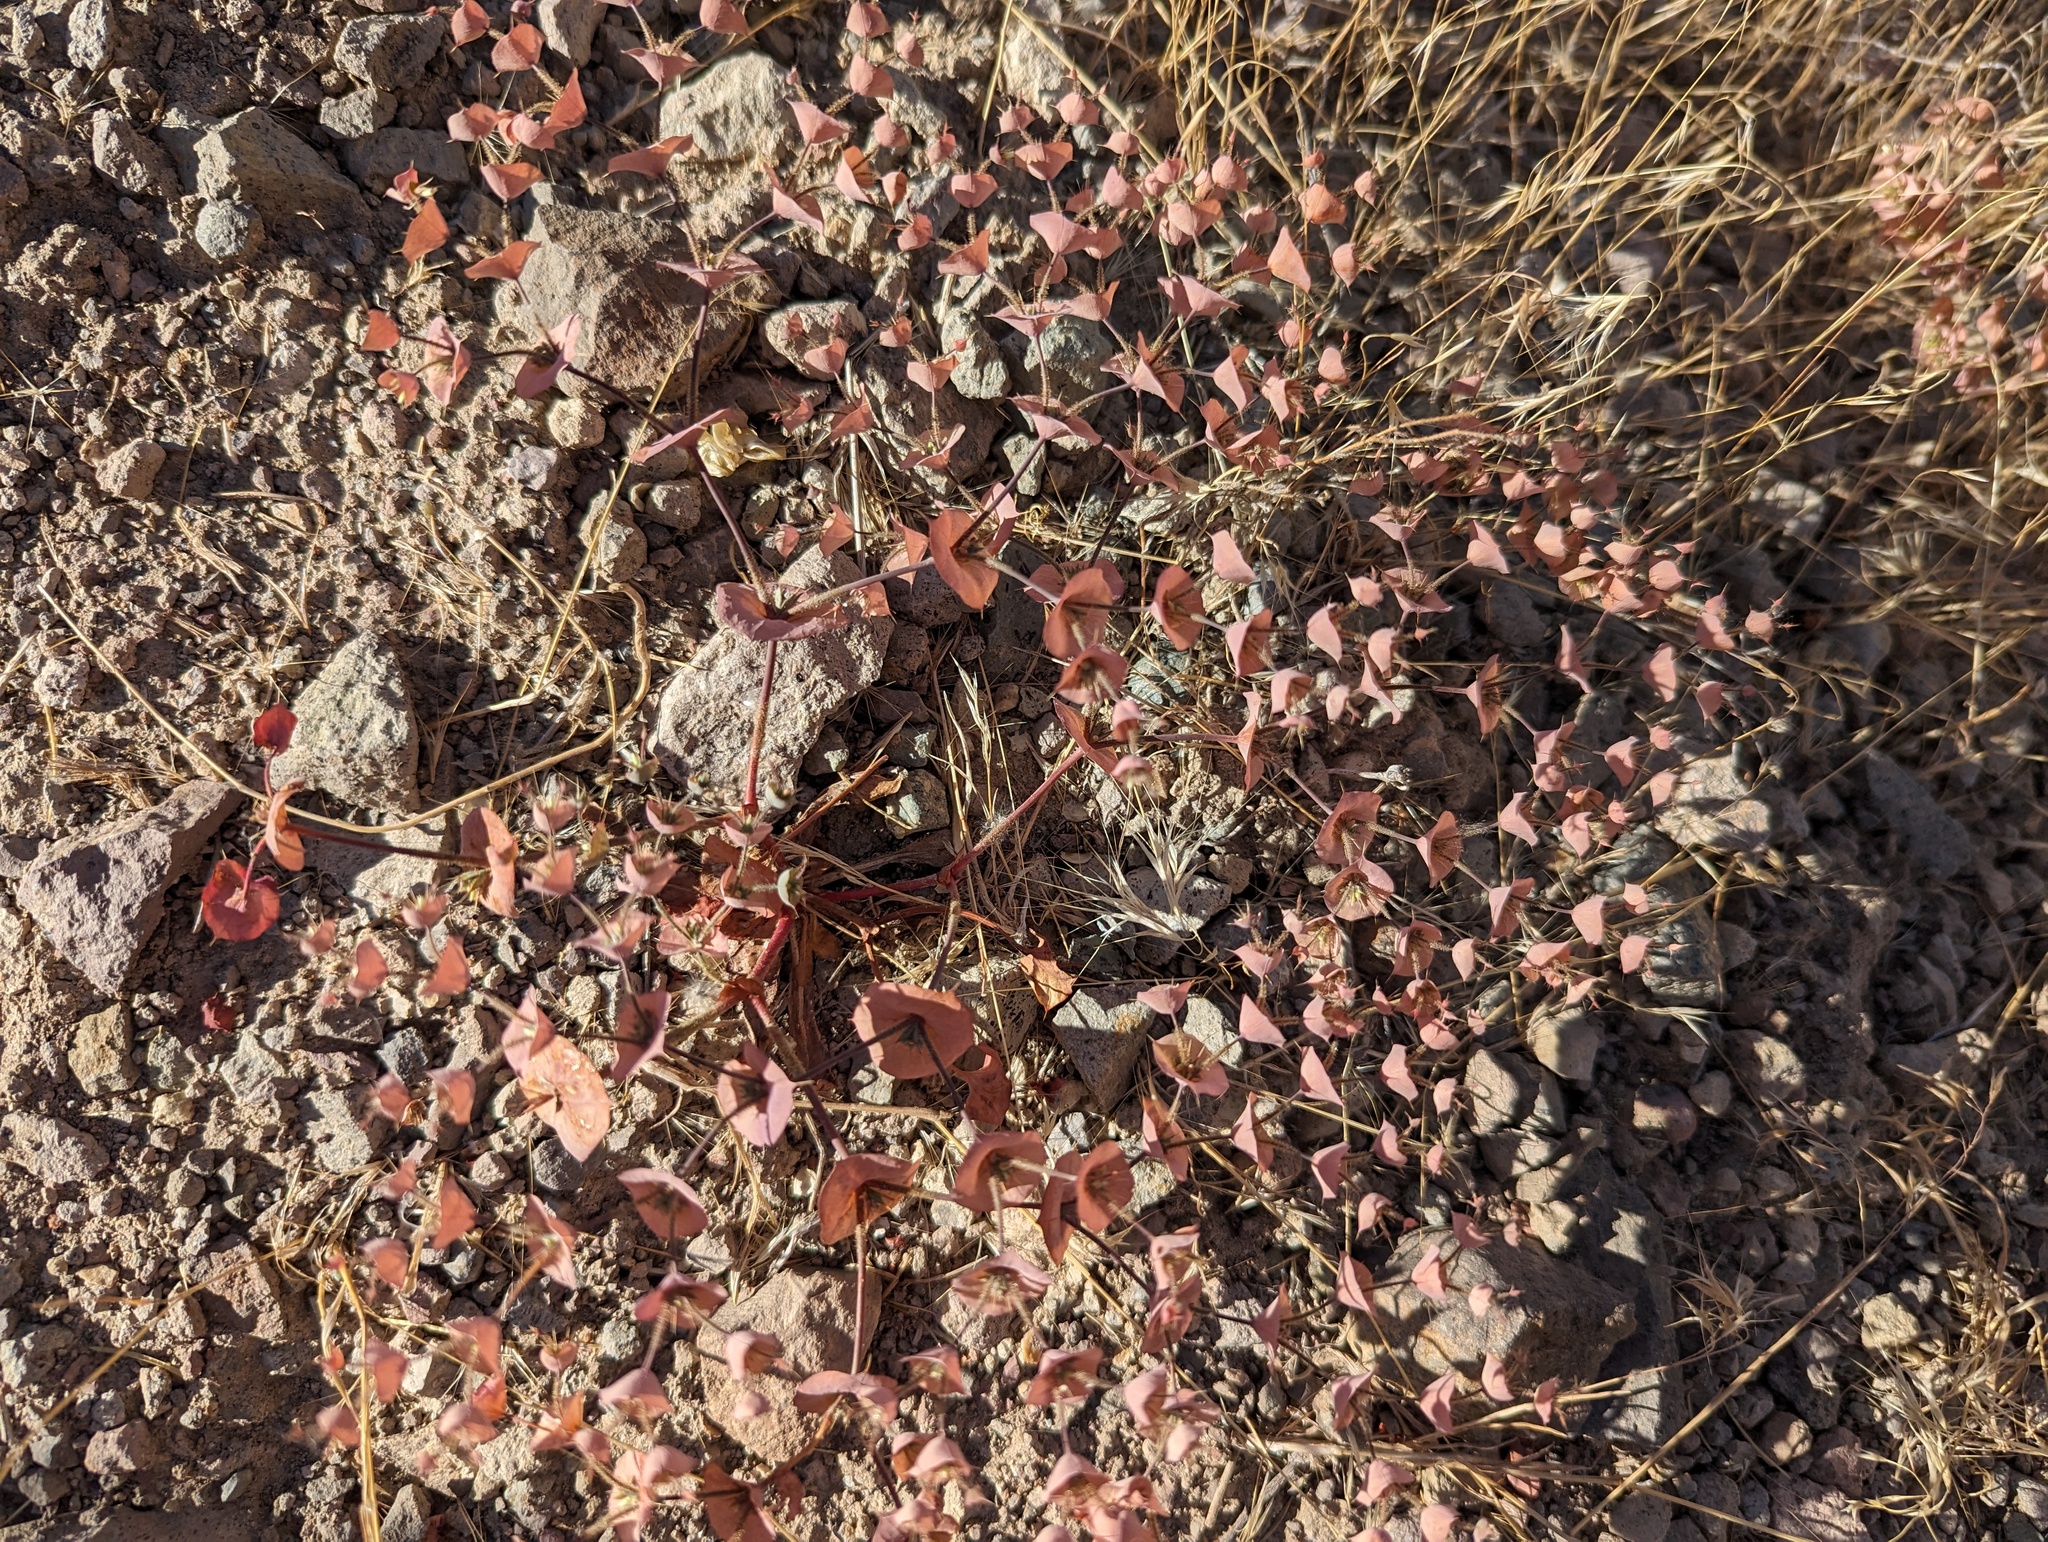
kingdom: Plantae
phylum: Tracheophyta
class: Magnoliopsida
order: Caryophyllales
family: Polygonaceae
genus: Oxytheca
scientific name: Oxytheca perfoliata
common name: Round-leaf puncturebract
